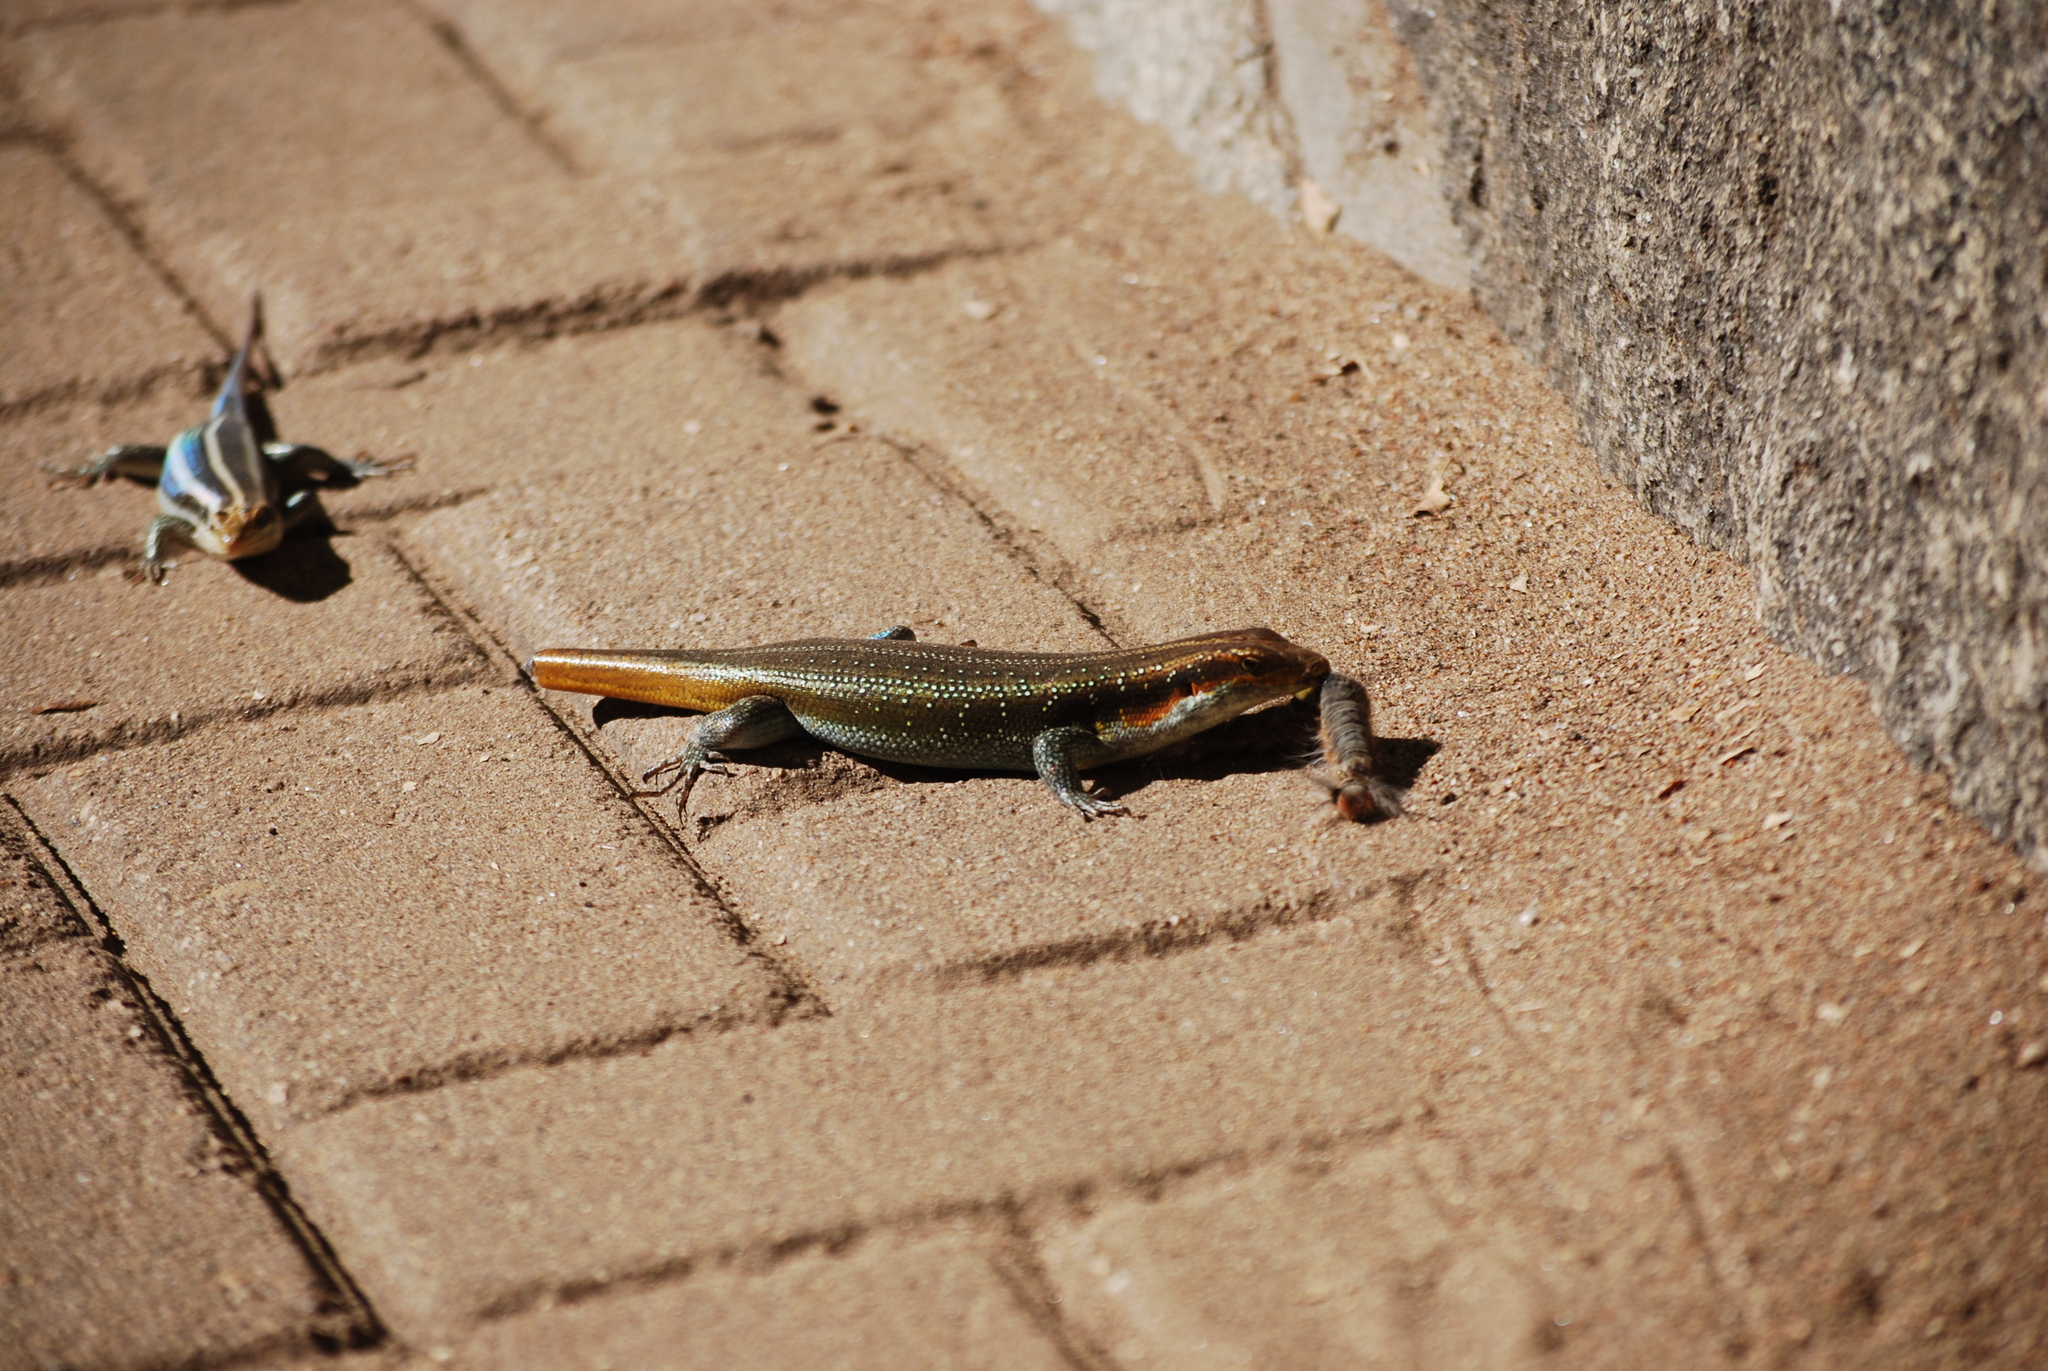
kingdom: Animalia
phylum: Chordata
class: Squamata
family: Scincidae
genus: Trachylepis
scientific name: Trachylepis margaritifera
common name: Rainbow skink
